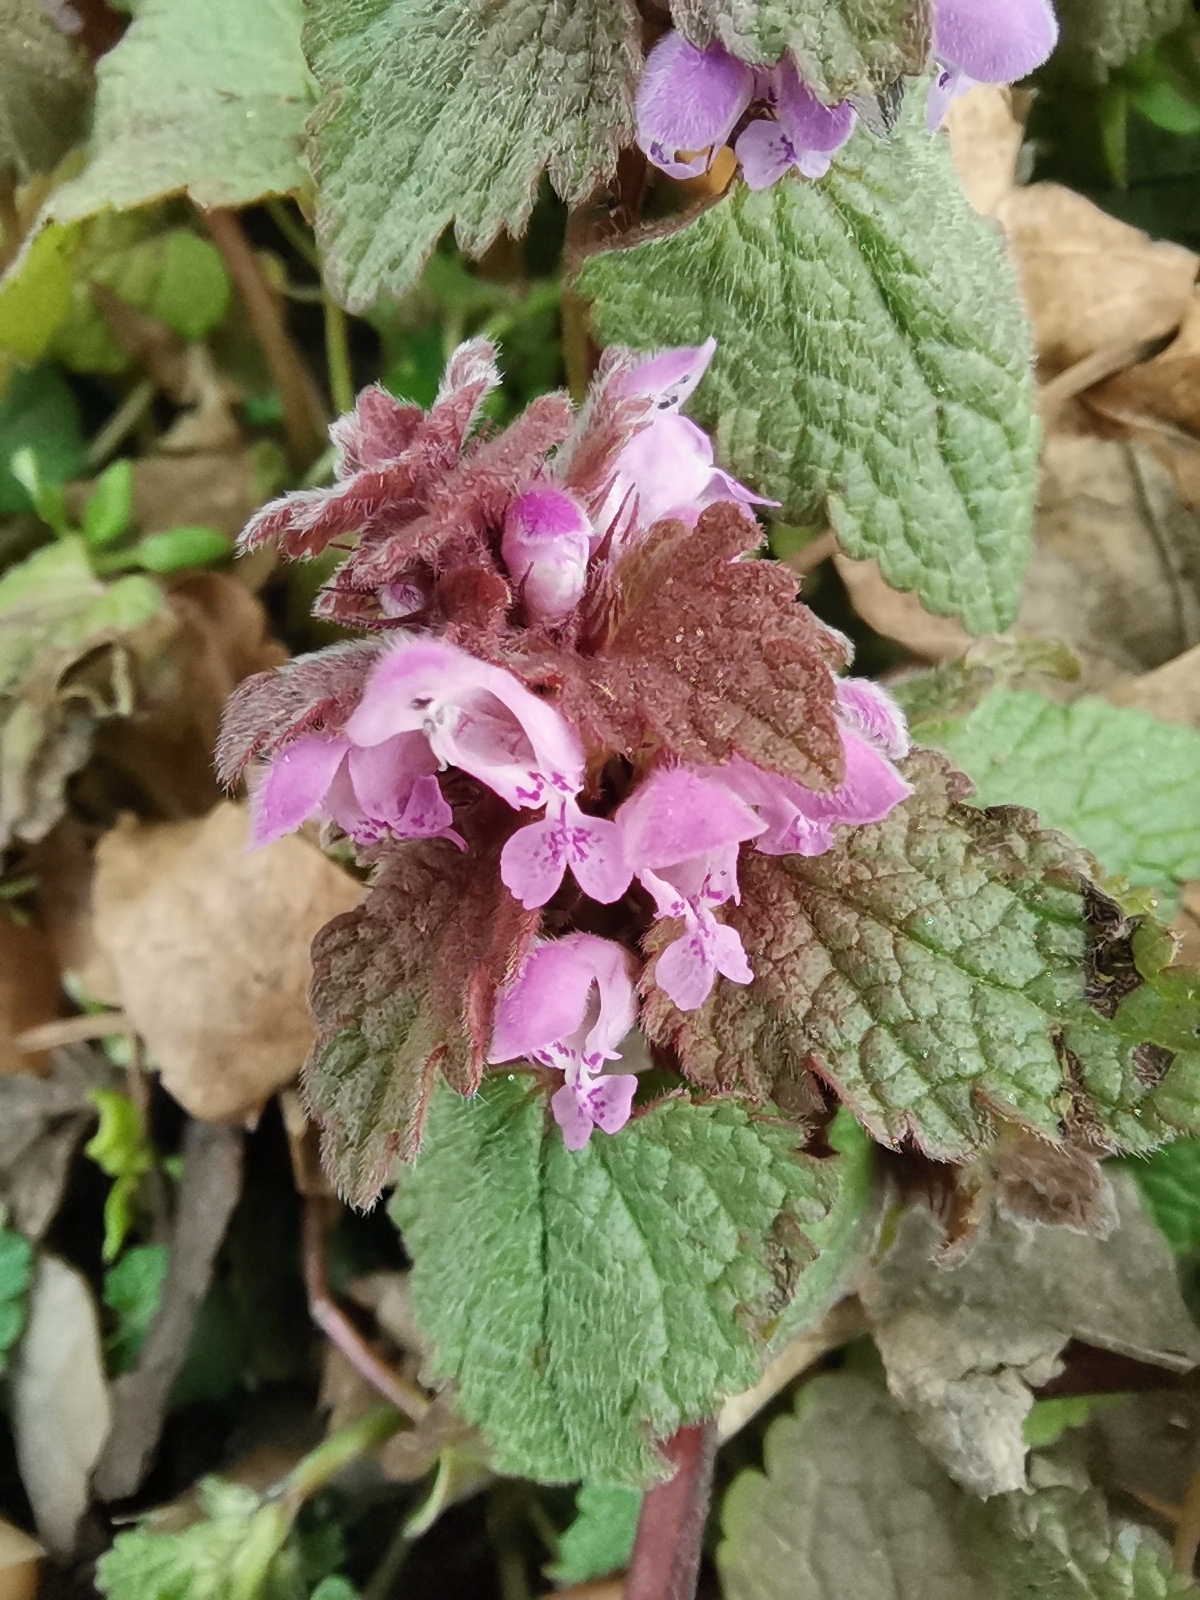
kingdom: Plantae
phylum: Tracheophyta
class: Magnoliopsida
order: Lamiales
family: Lamiaceae
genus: Lamium
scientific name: Lamium purpureum
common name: Red dead-nettle
